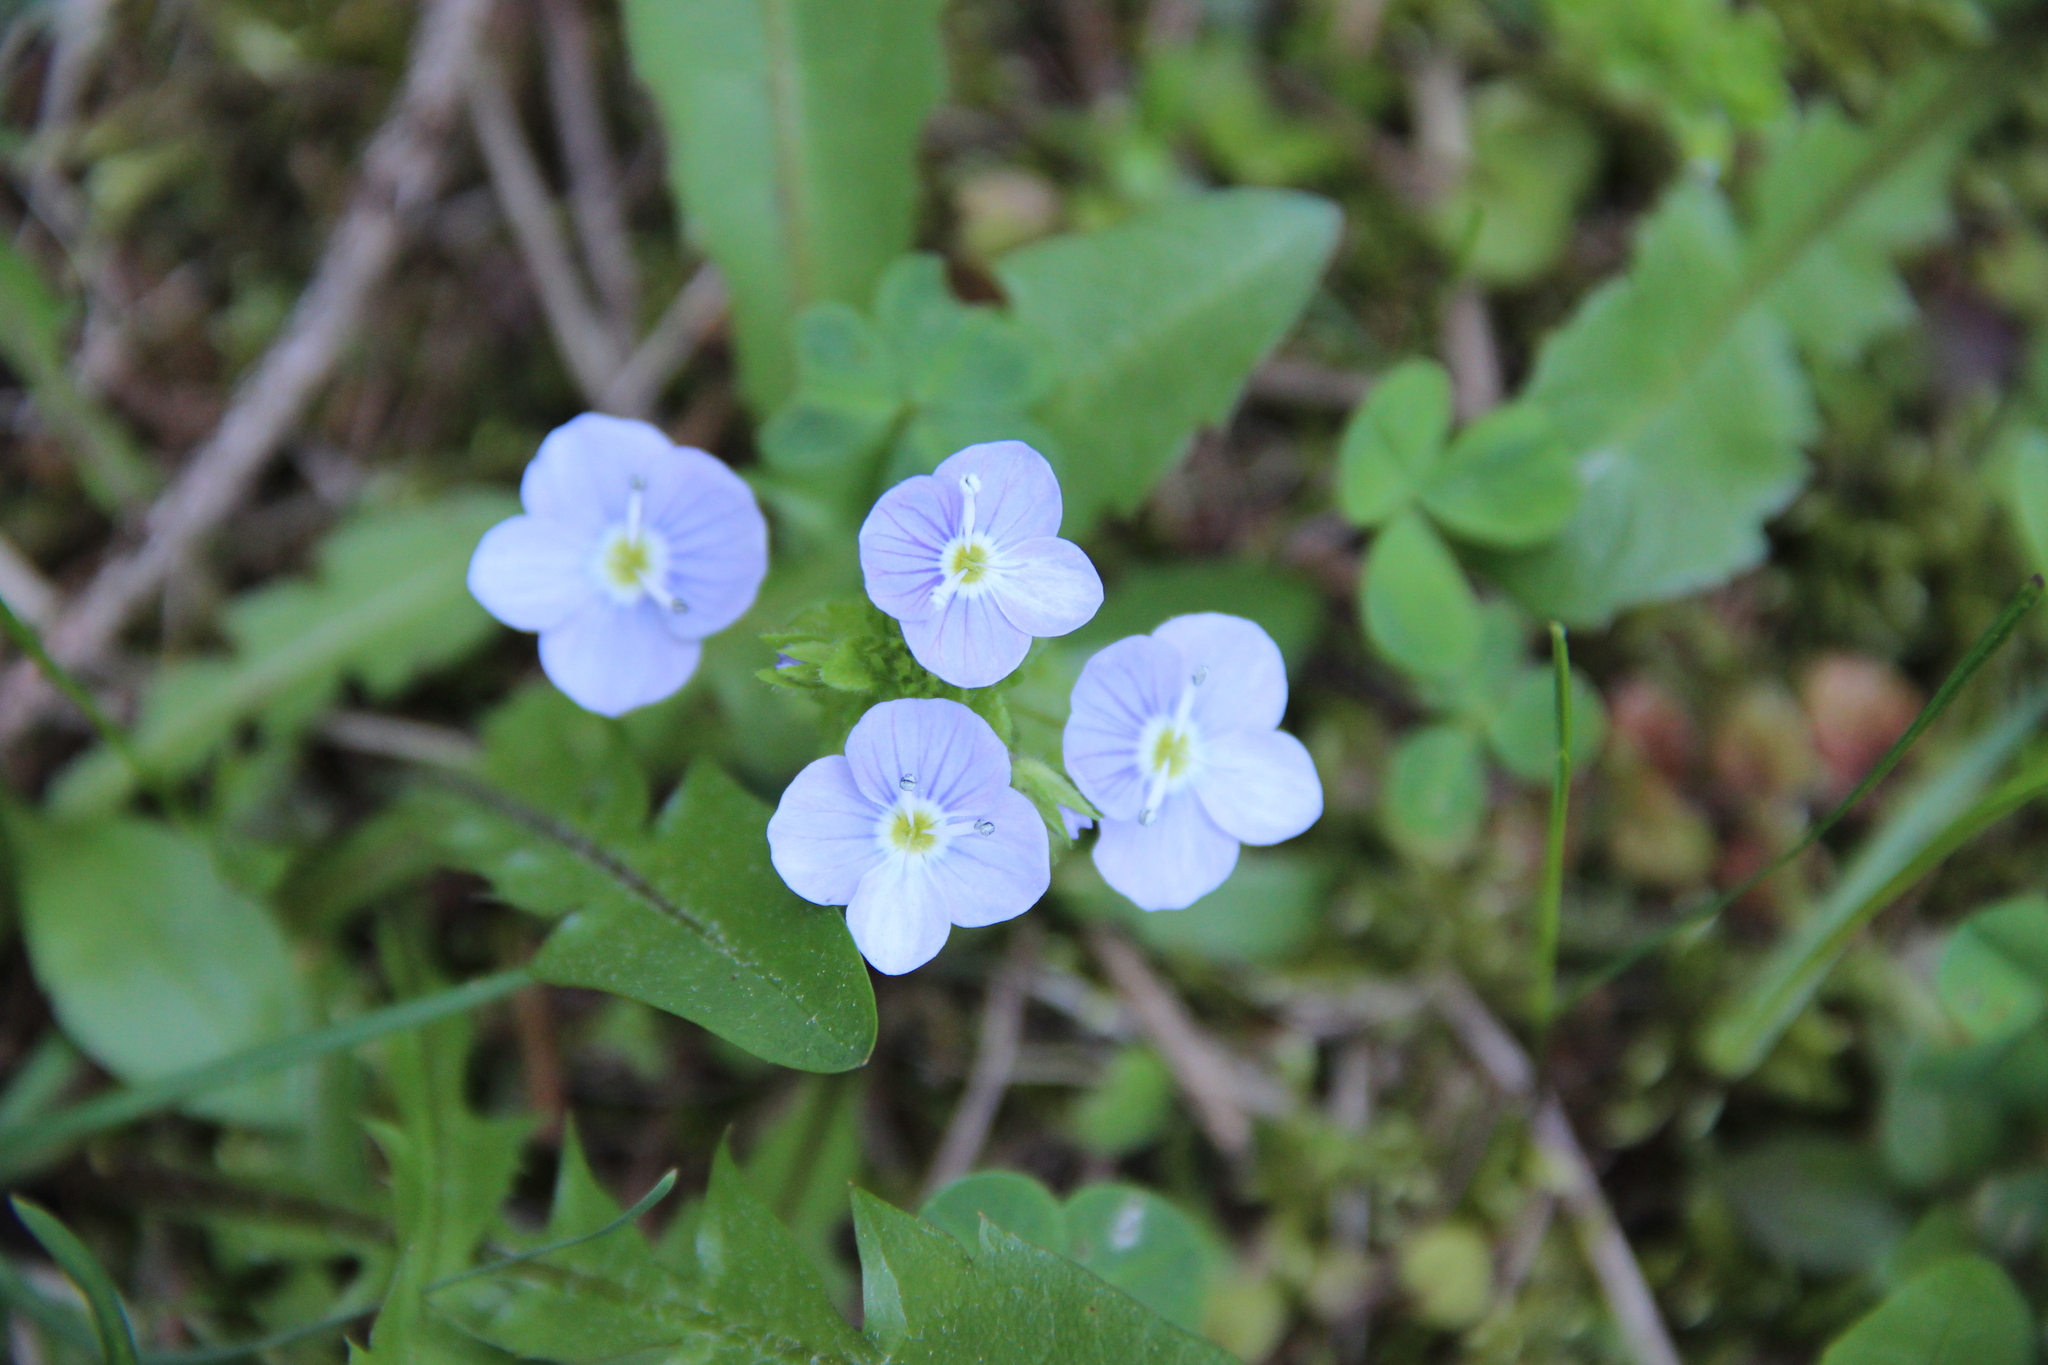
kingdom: Plantae
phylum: Tracheophyta
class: Magnoliopsida
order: Lamiales
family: Plantaginaceae
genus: Veronica
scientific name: Veronica filiformis
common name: Slender speedwell
